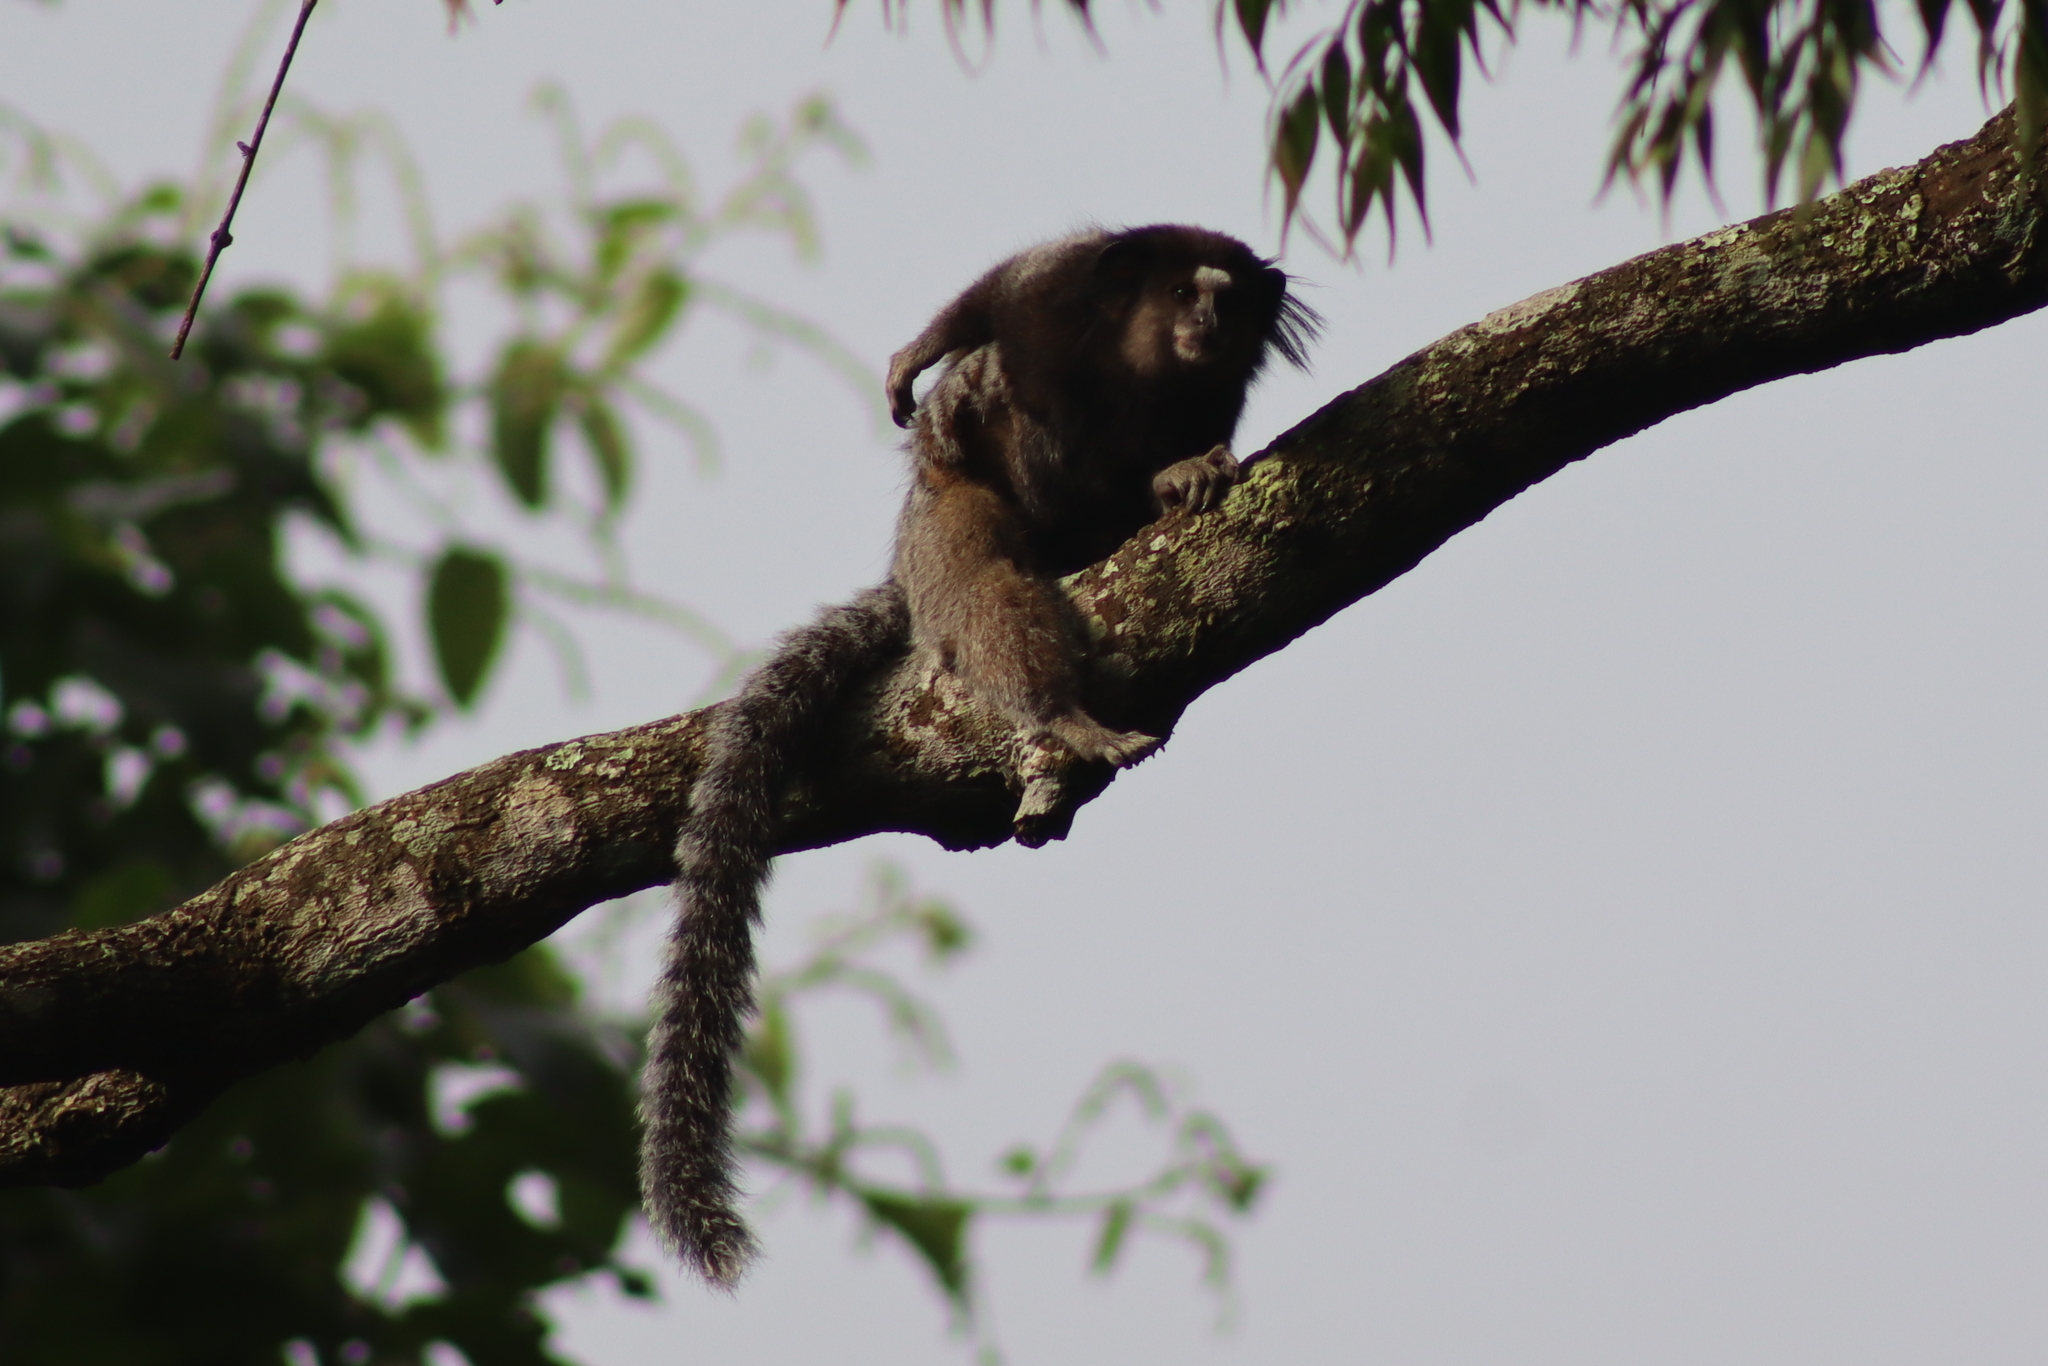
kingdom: Animalia
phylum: Chordata
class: Mammalia
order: Primates
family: Callitrichidae
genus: Callithrix
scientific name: Callithrix penicillata
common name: Black-tufted marmoset
